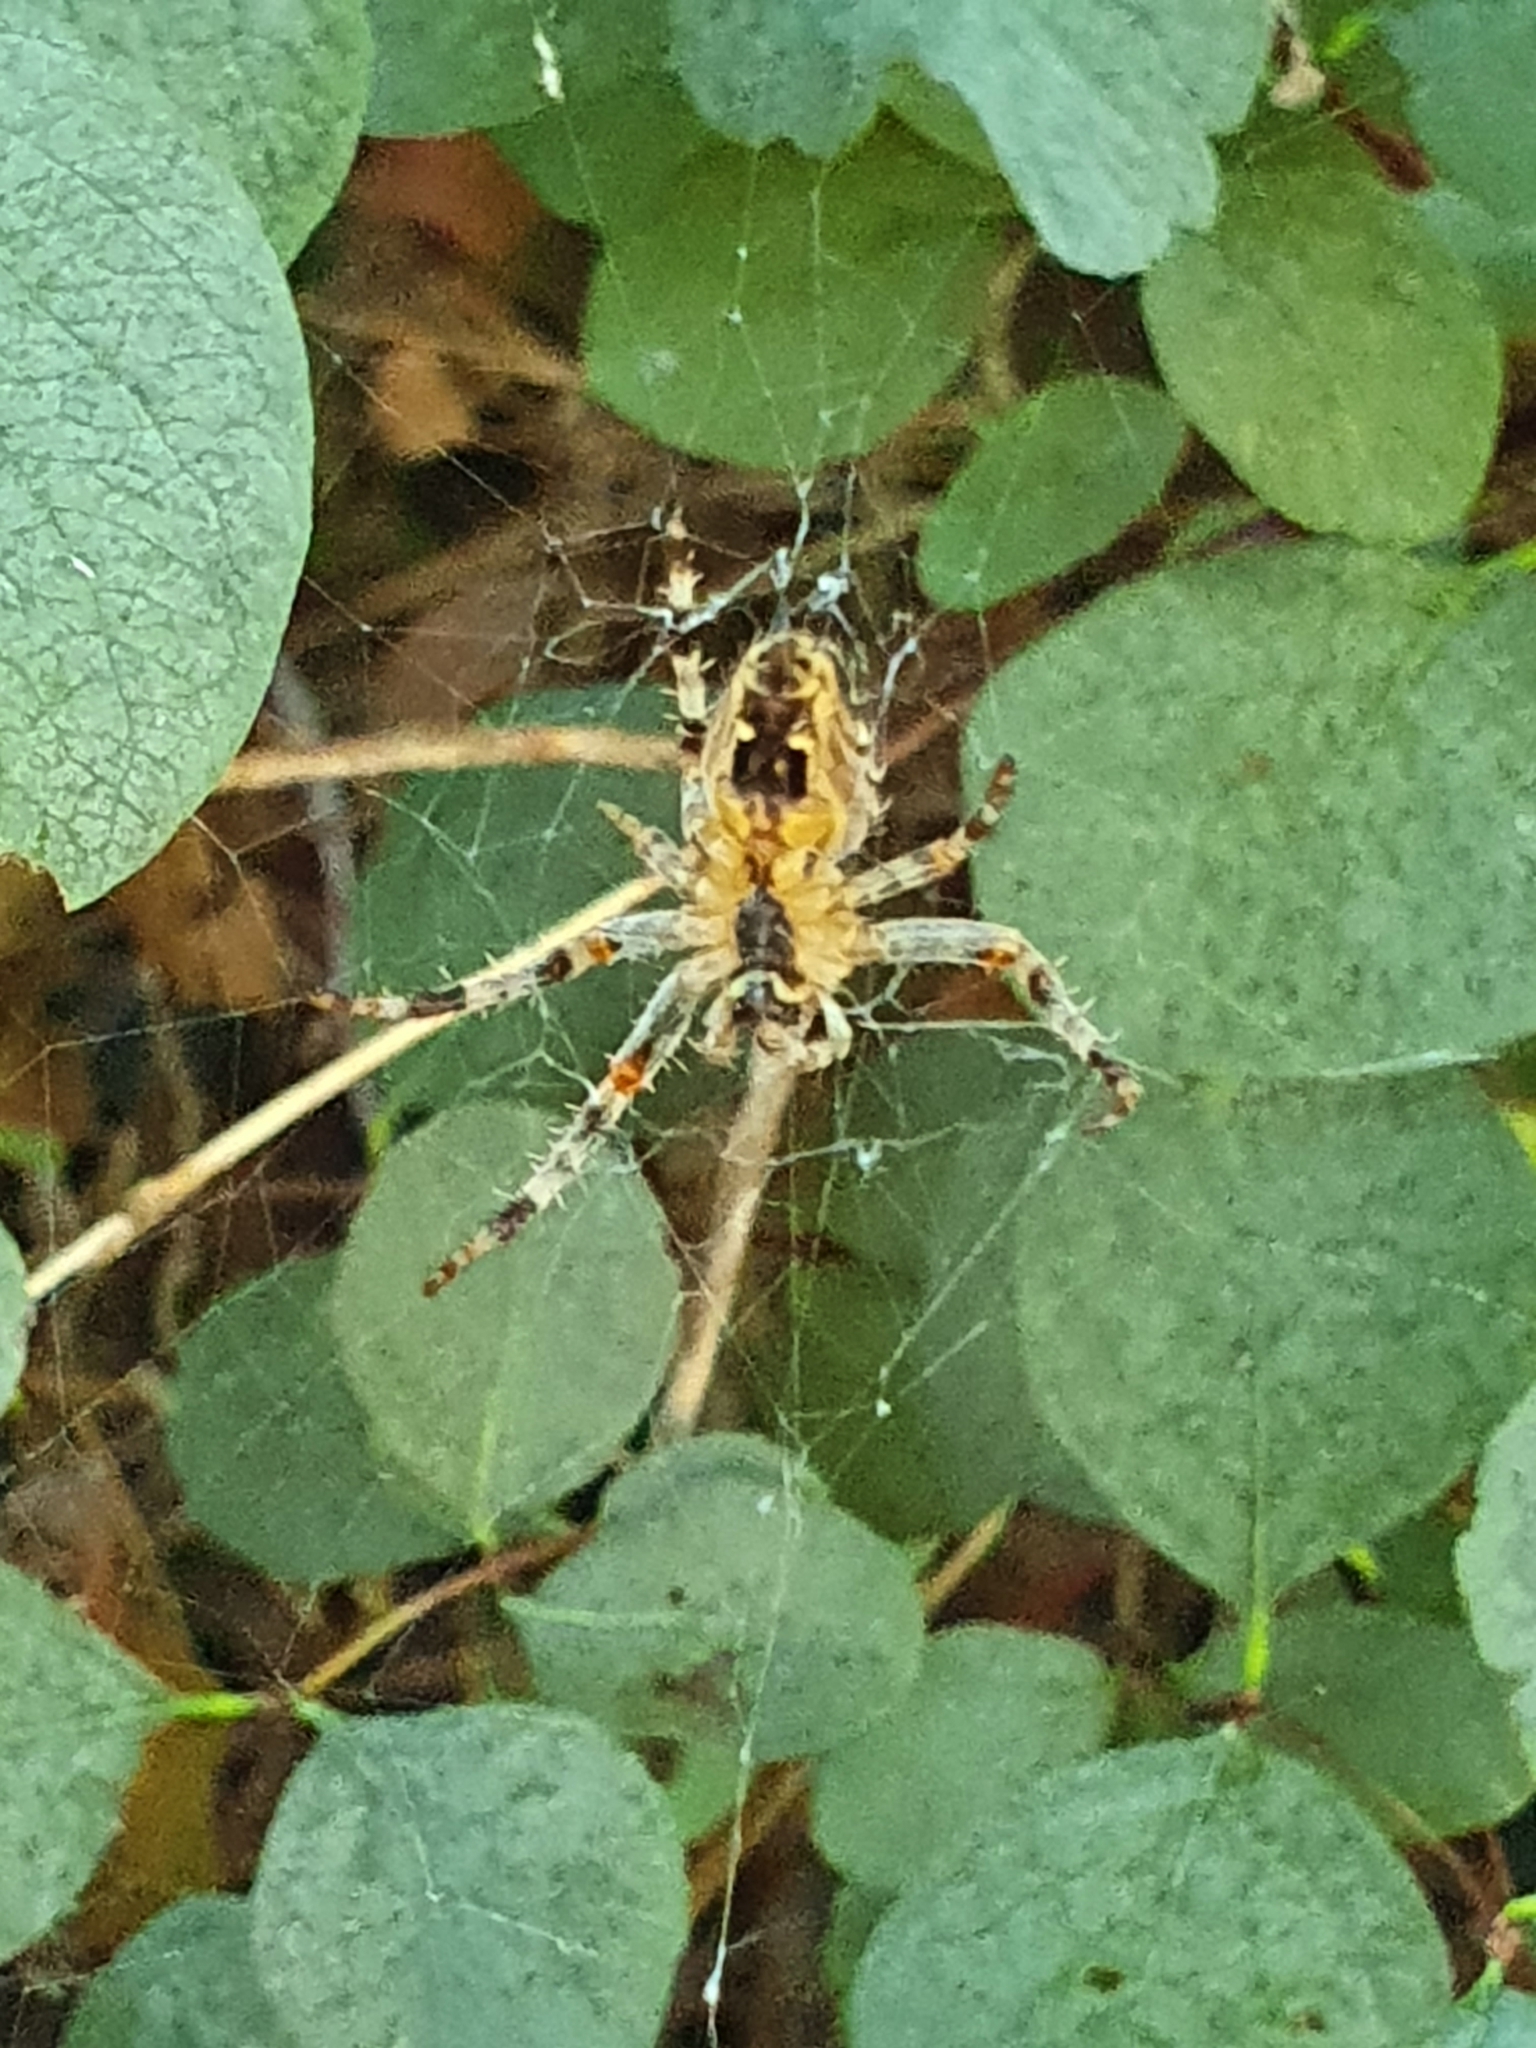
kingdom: Animalia
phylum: Arthropoda
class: Arachnida
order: Araneae
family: Araneidae
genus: Araneus
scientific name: Araneus diadematus
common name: Cross orbweaver
